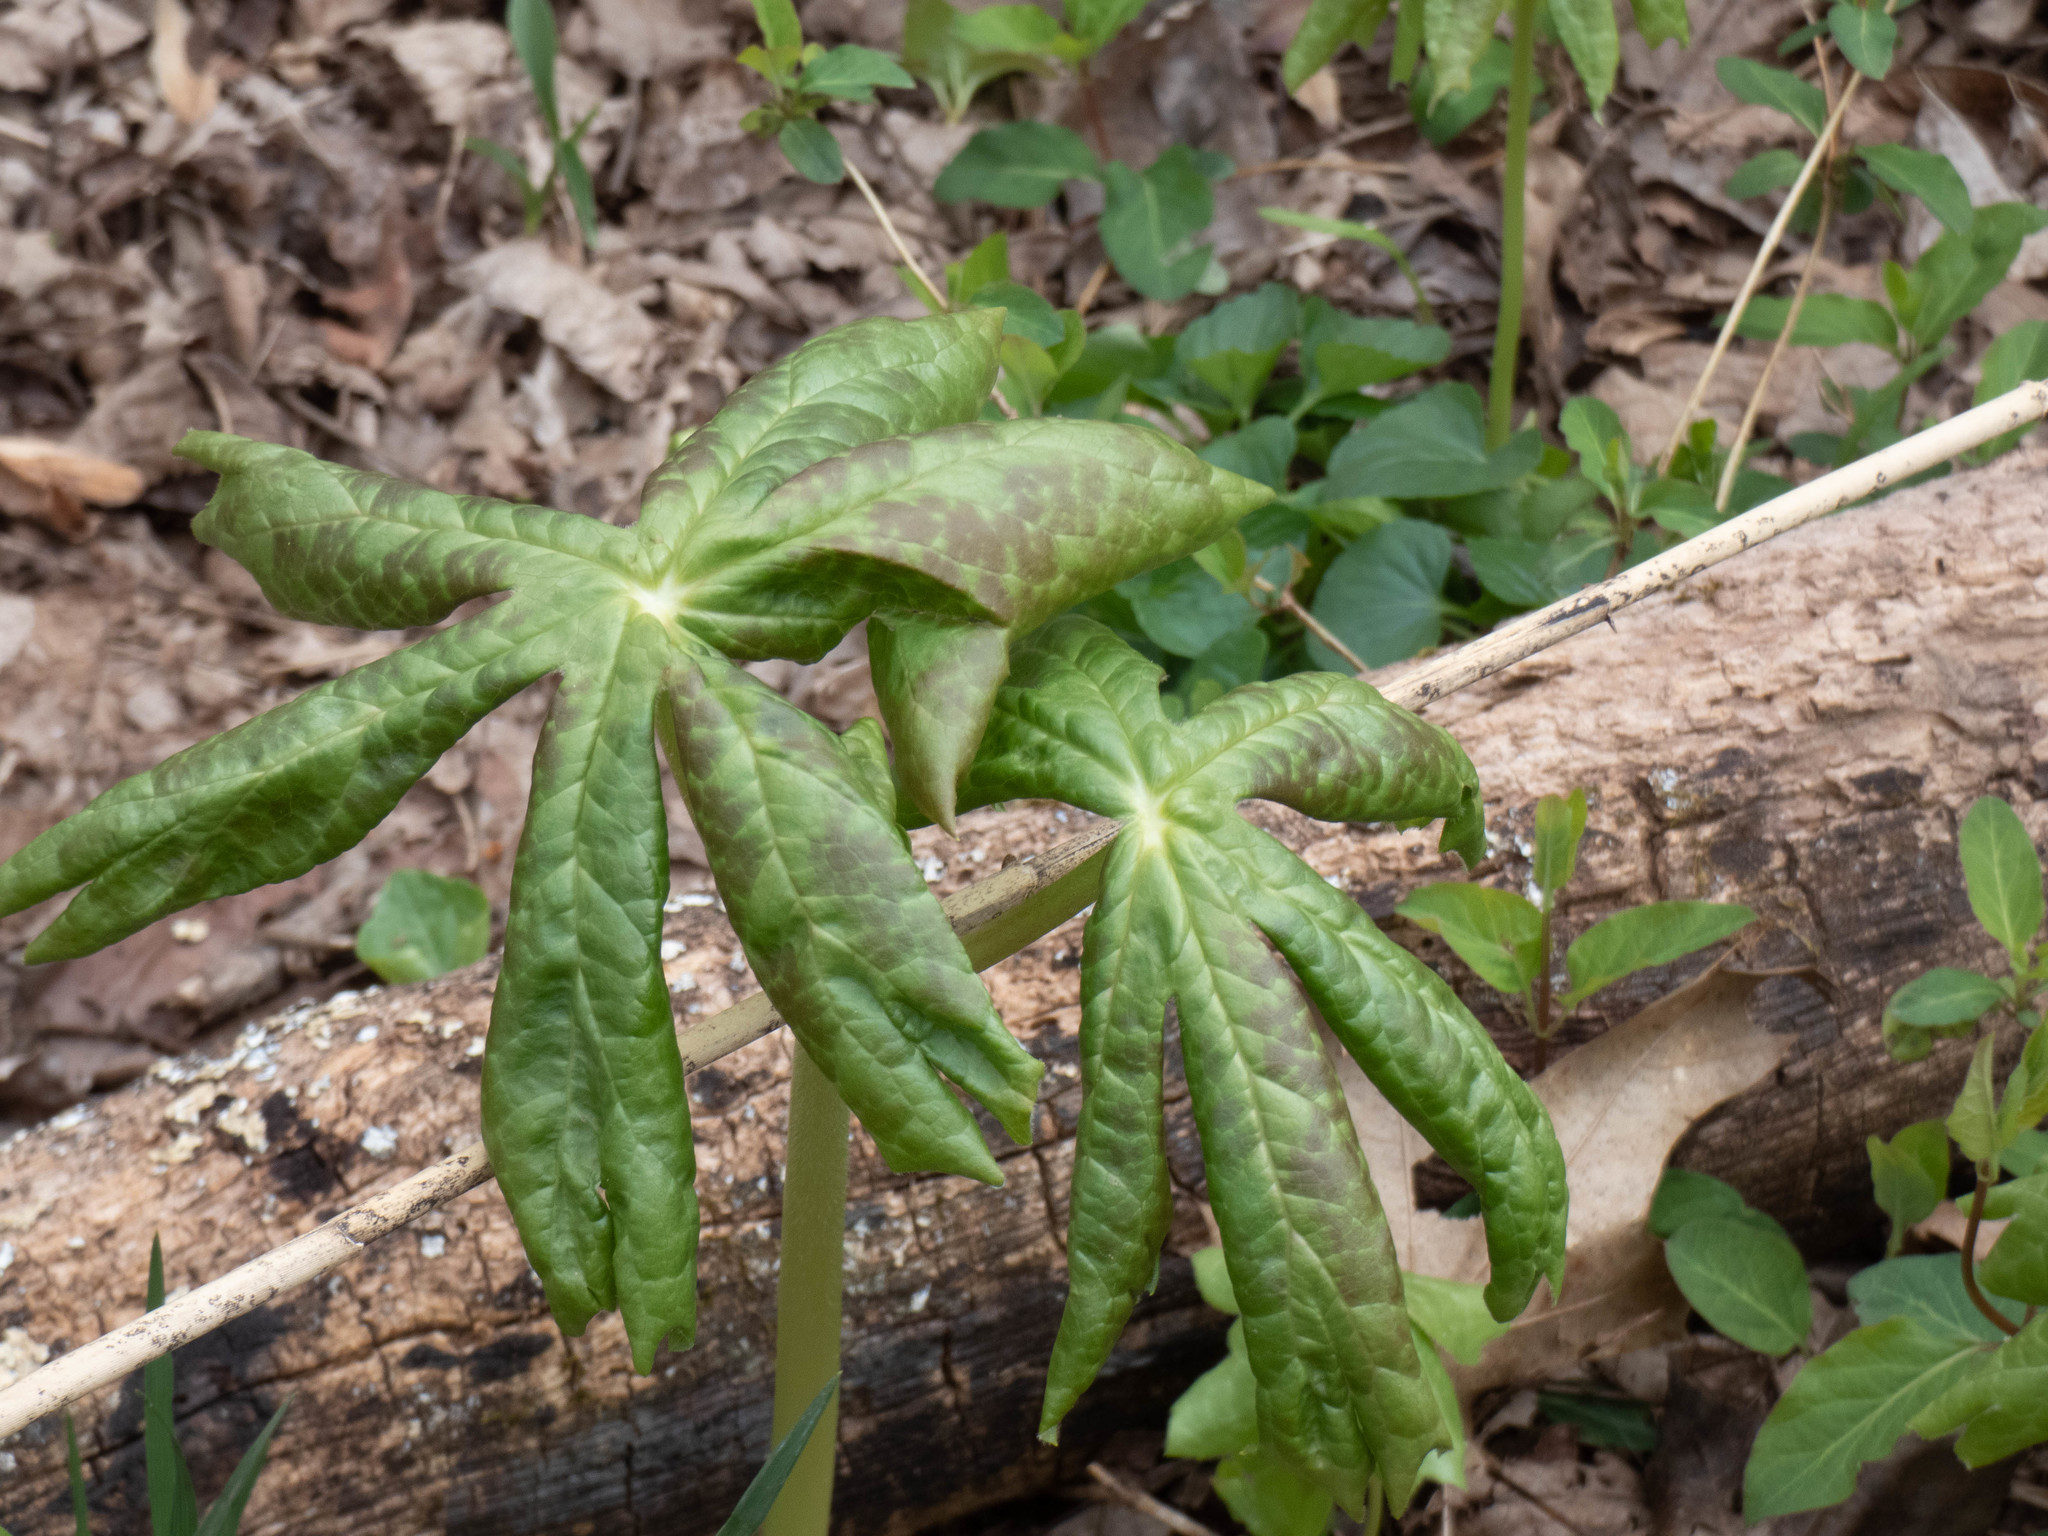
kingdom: Plantae
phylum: Tracheophyta
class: Magnoliopsida
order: Ranunculales
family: Berberidaceae
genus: Podophyllum
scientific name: Podophyllum peltatum
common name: Wild mandrake
